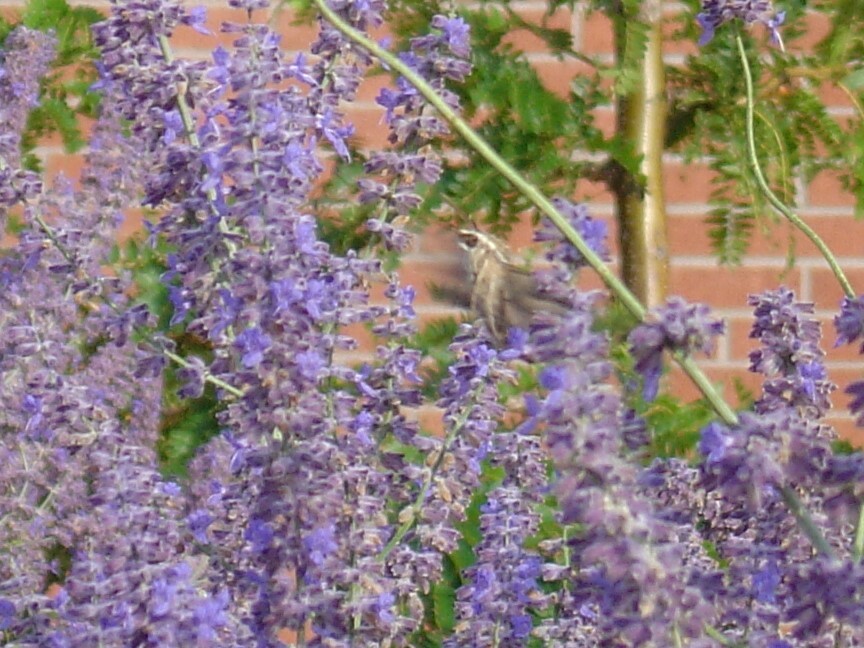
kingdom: Animalia
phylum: Arthropoda
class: Insecta
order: Lepidoptera
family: Sphingidae
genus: Hyles
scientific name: Hyles lineata
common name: White-lined sphinx
